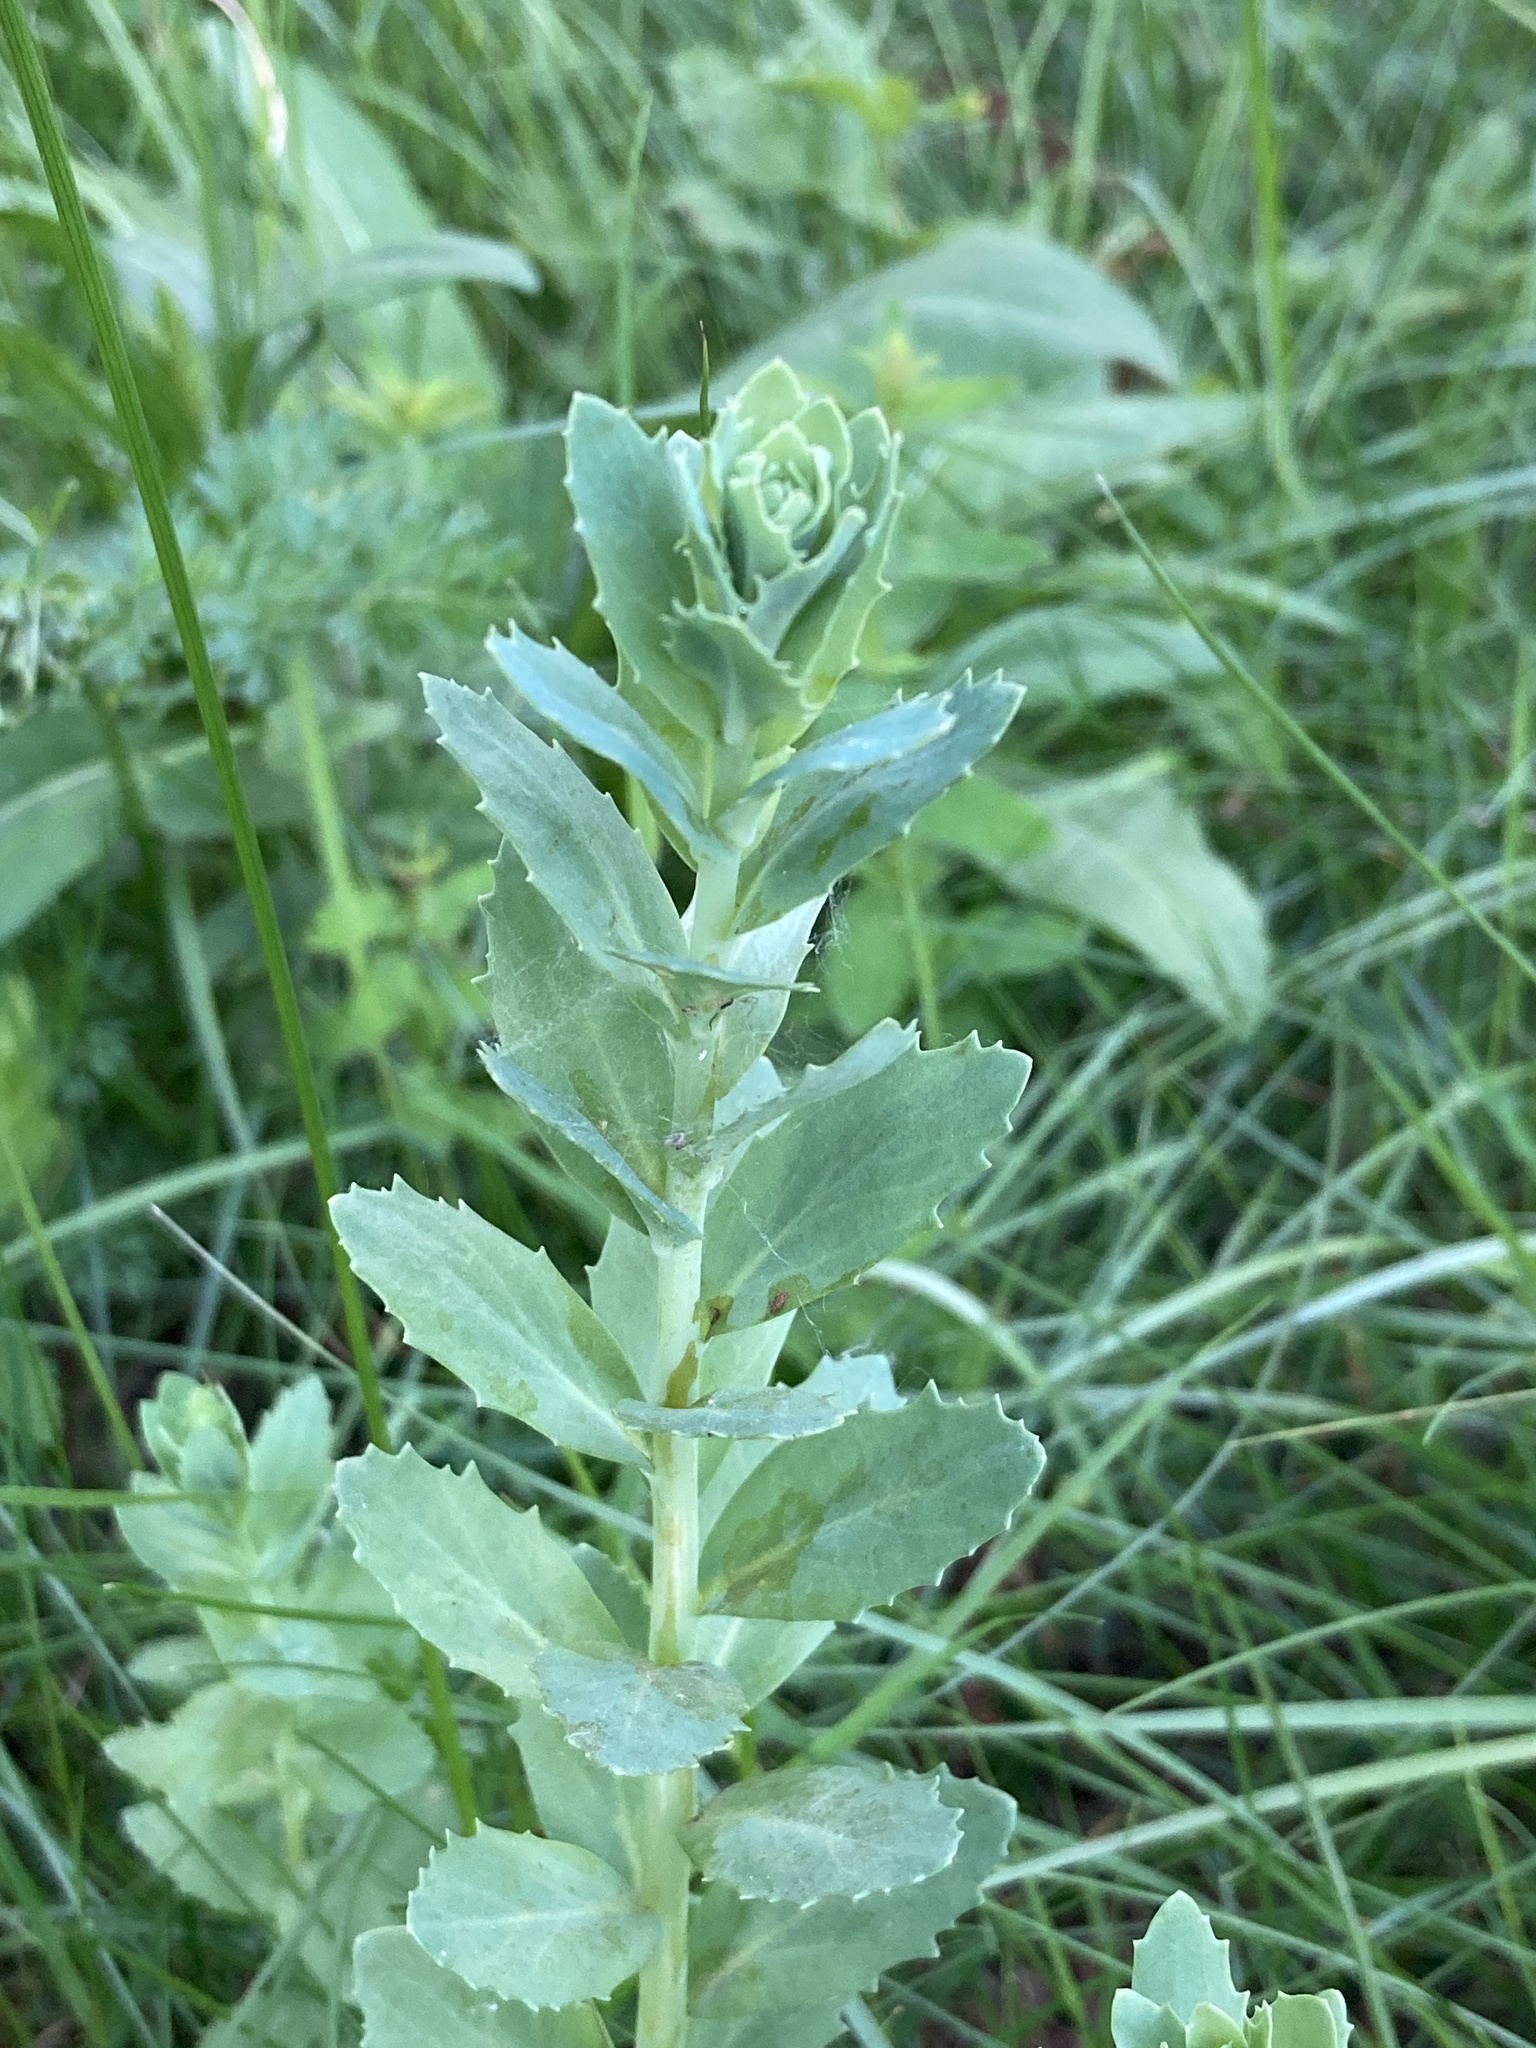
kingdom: Plantae
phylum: Tracheophyta
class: Magnoliopsida
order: Saxifragales
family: Crassulaceae
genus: Hylotelephium
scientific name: Hylotelephium telephium
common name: Live-forever
